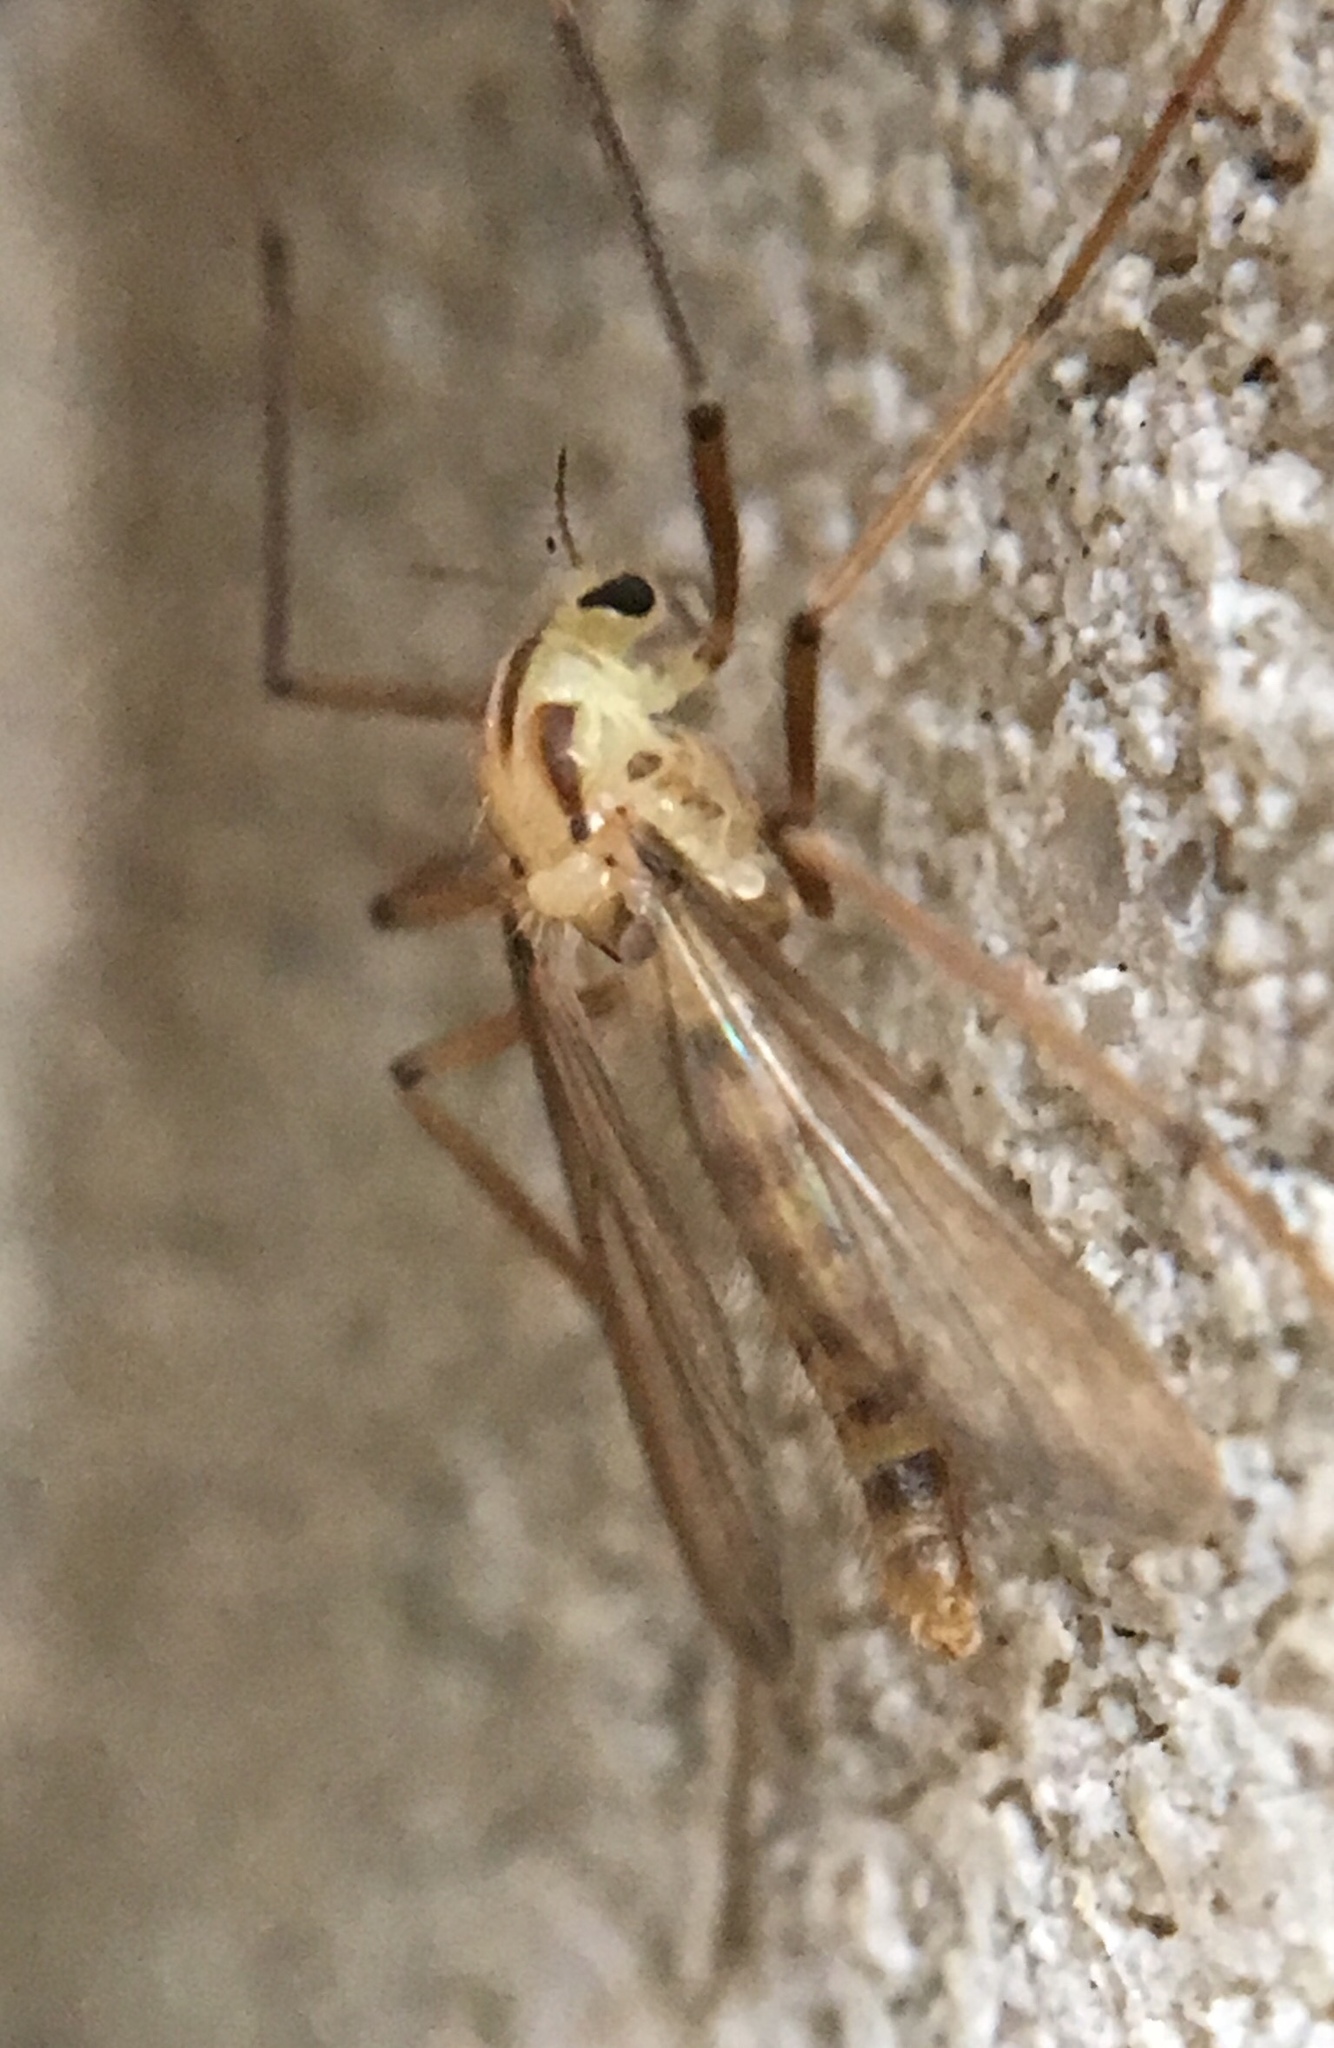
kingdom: Animalia
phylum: Arthropoda
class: Insecta
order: Diptera
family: Chironomidae
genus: Xylotopus
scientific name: Xylotopus par
